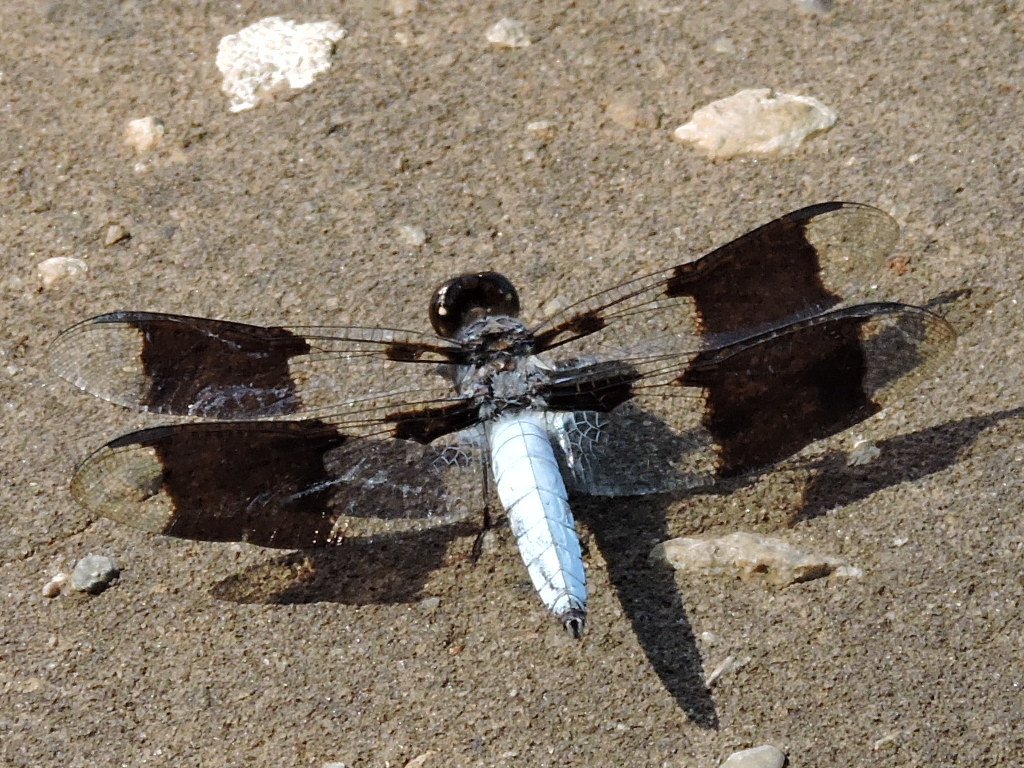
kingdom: Animalia
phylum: Arthropoda
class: Insecta
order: Odonata
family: Libellulidae
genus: Plathemis
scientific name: Plathemis lydia
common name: Common whitetail
